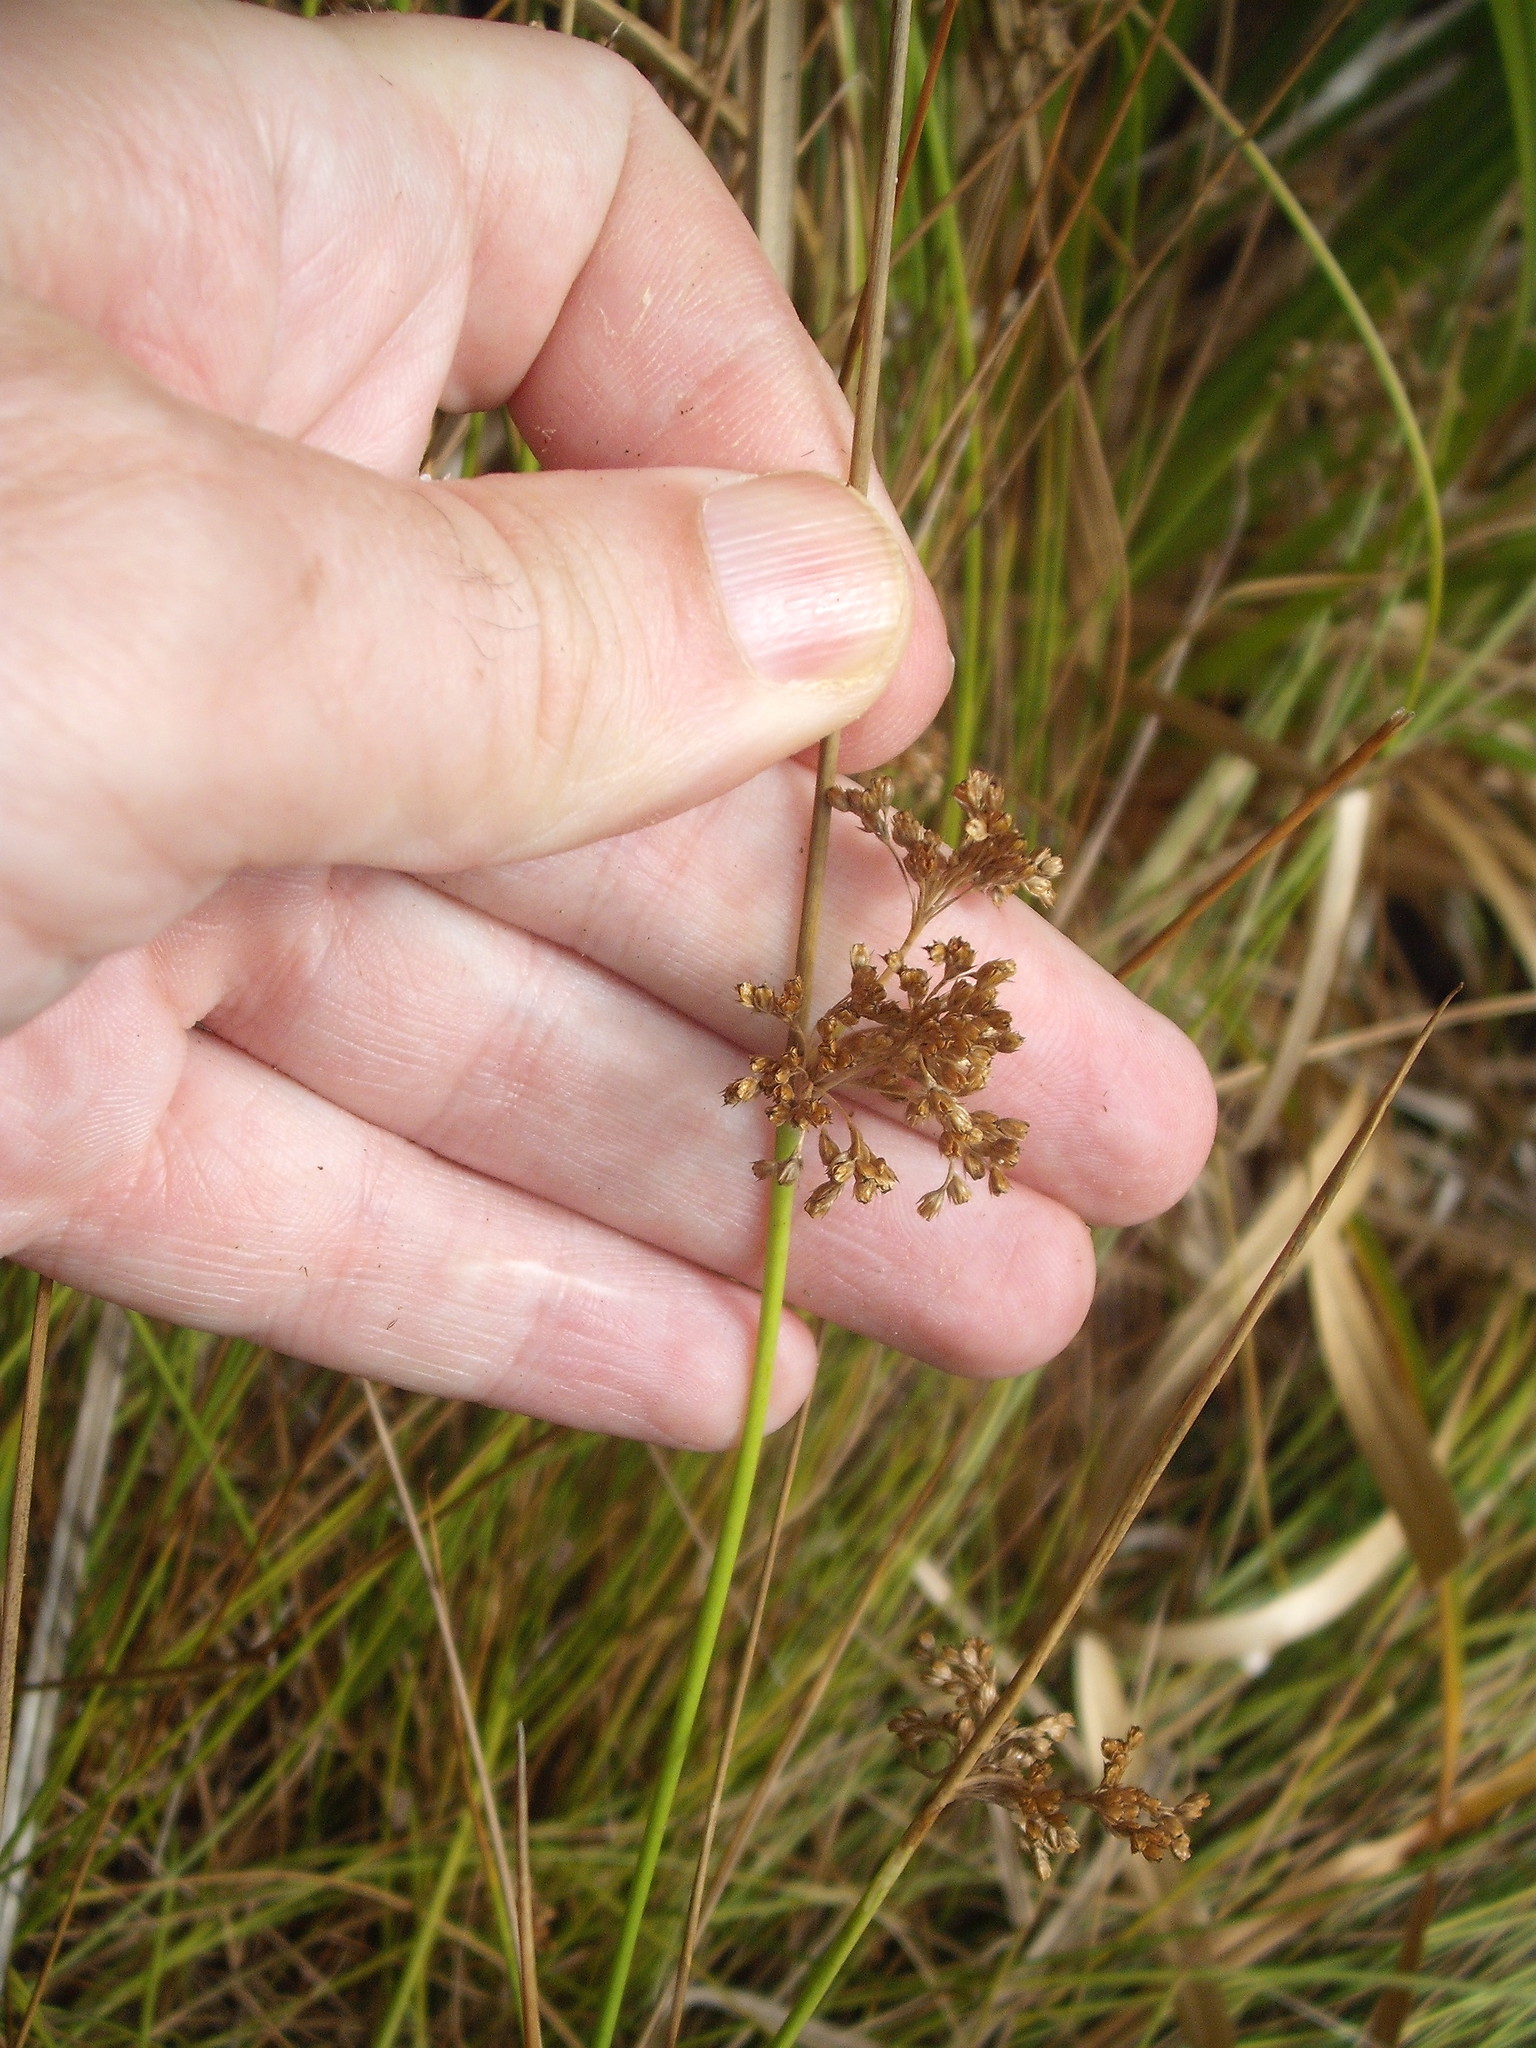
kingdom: Plantae
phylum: Tracheophyta
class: Liliopsida
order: Poales
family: Juncaceae
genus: Juncus
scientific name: Juncus effusus
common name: Soft rush
